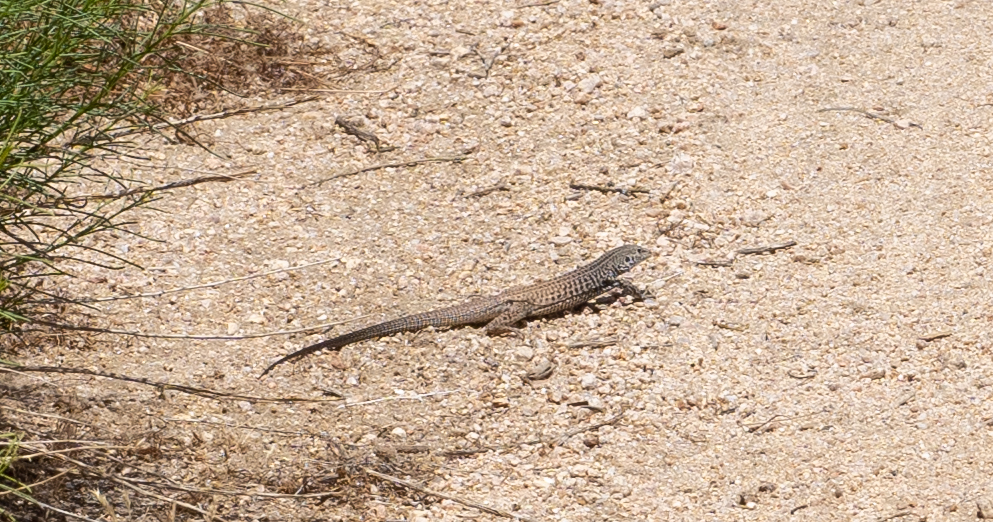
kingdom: Animalia
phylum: Chordata
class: Squamata
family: Teiidae
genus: Aspidoscelis
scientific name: Aspidoscelis tigris
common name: Tiger whiptail
